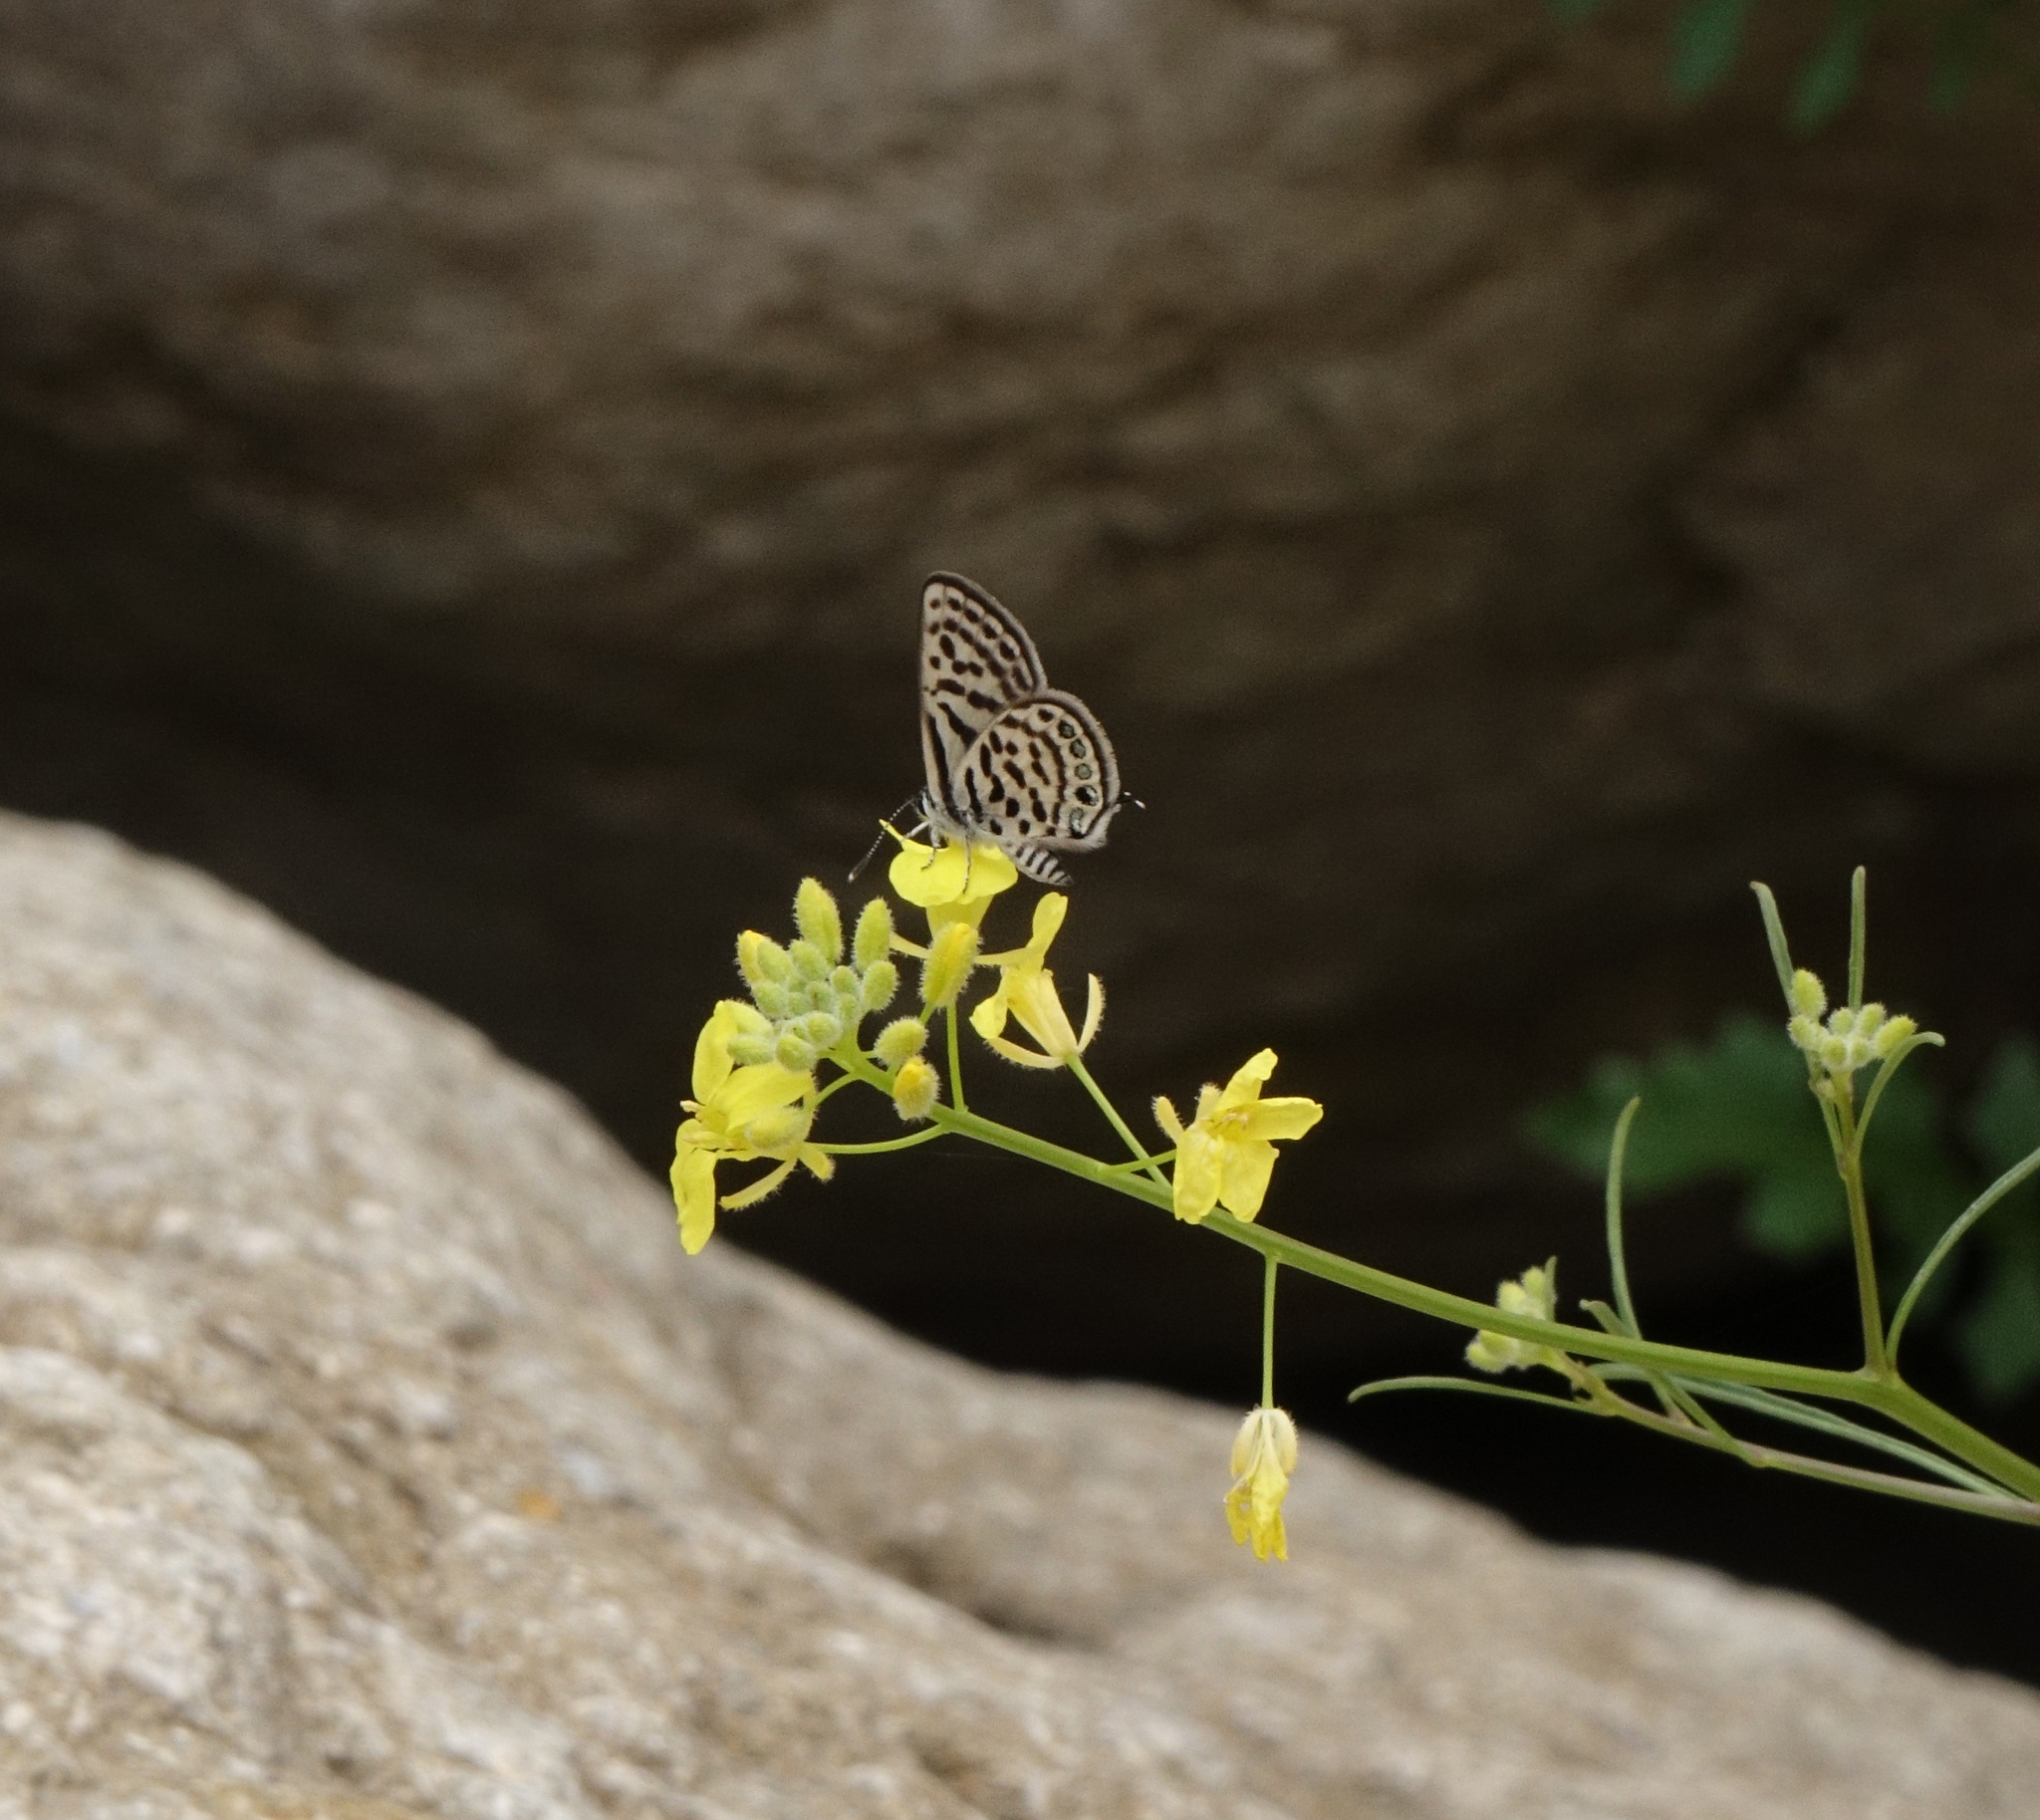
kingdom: Animalia
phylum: Arthropoda
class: Insecta
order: Lepidoptera
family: Lycaenidae
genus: Tarucus
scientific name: Tarucus balkanica
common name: Little tiger blue
